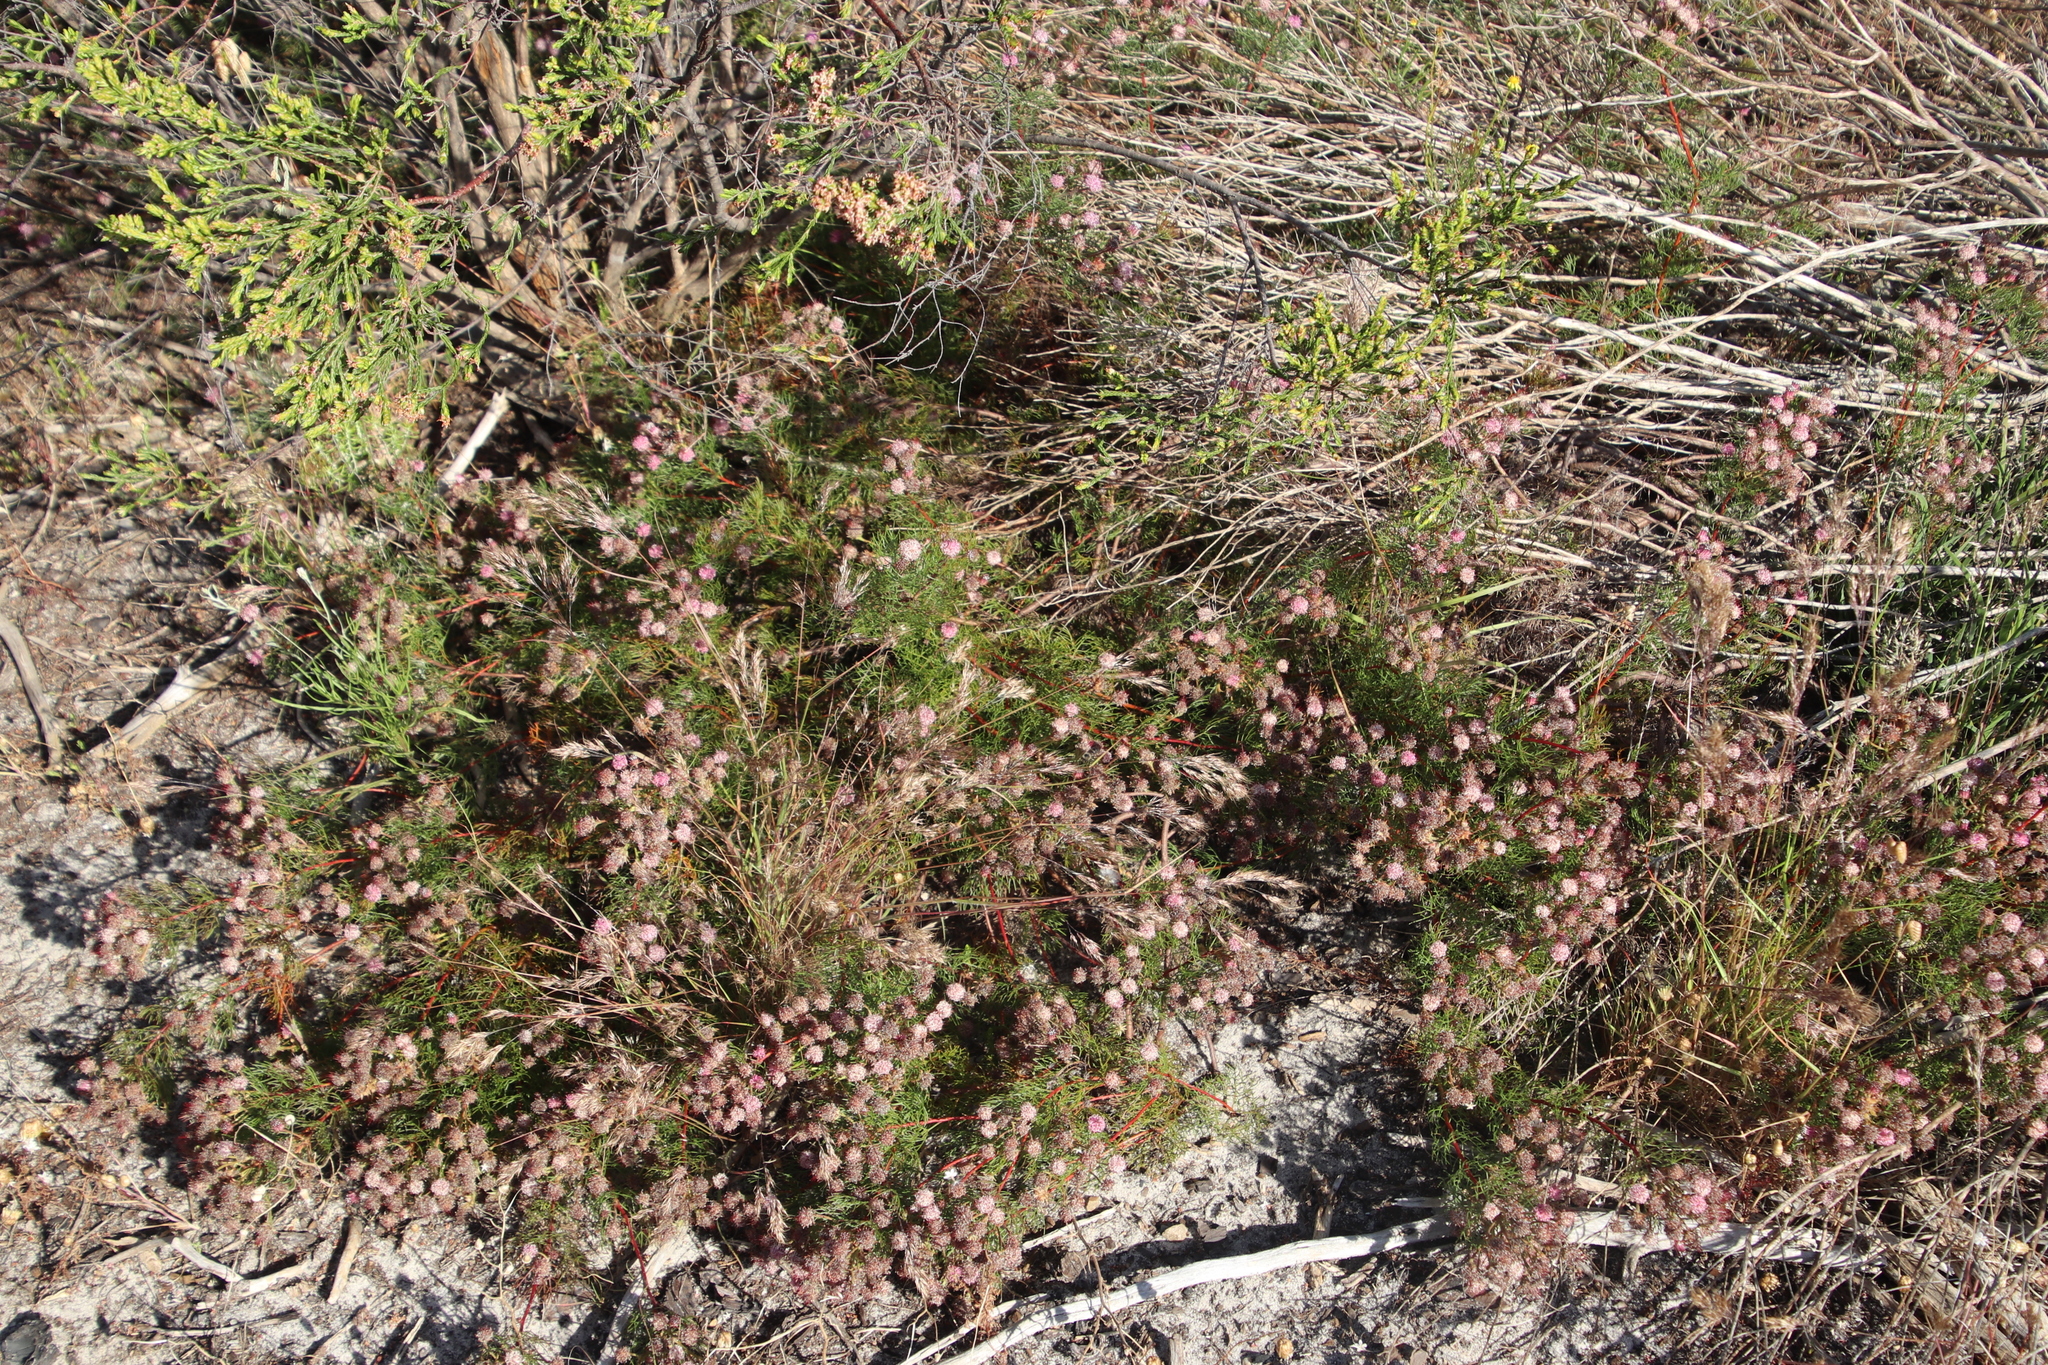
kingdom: Plantae
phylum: Tracheophyta
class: Magnoliopsida
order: Proteales
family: Proteaceae
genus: Serruria
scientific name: Serruria fasciflora
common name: Common pin spiderhead
